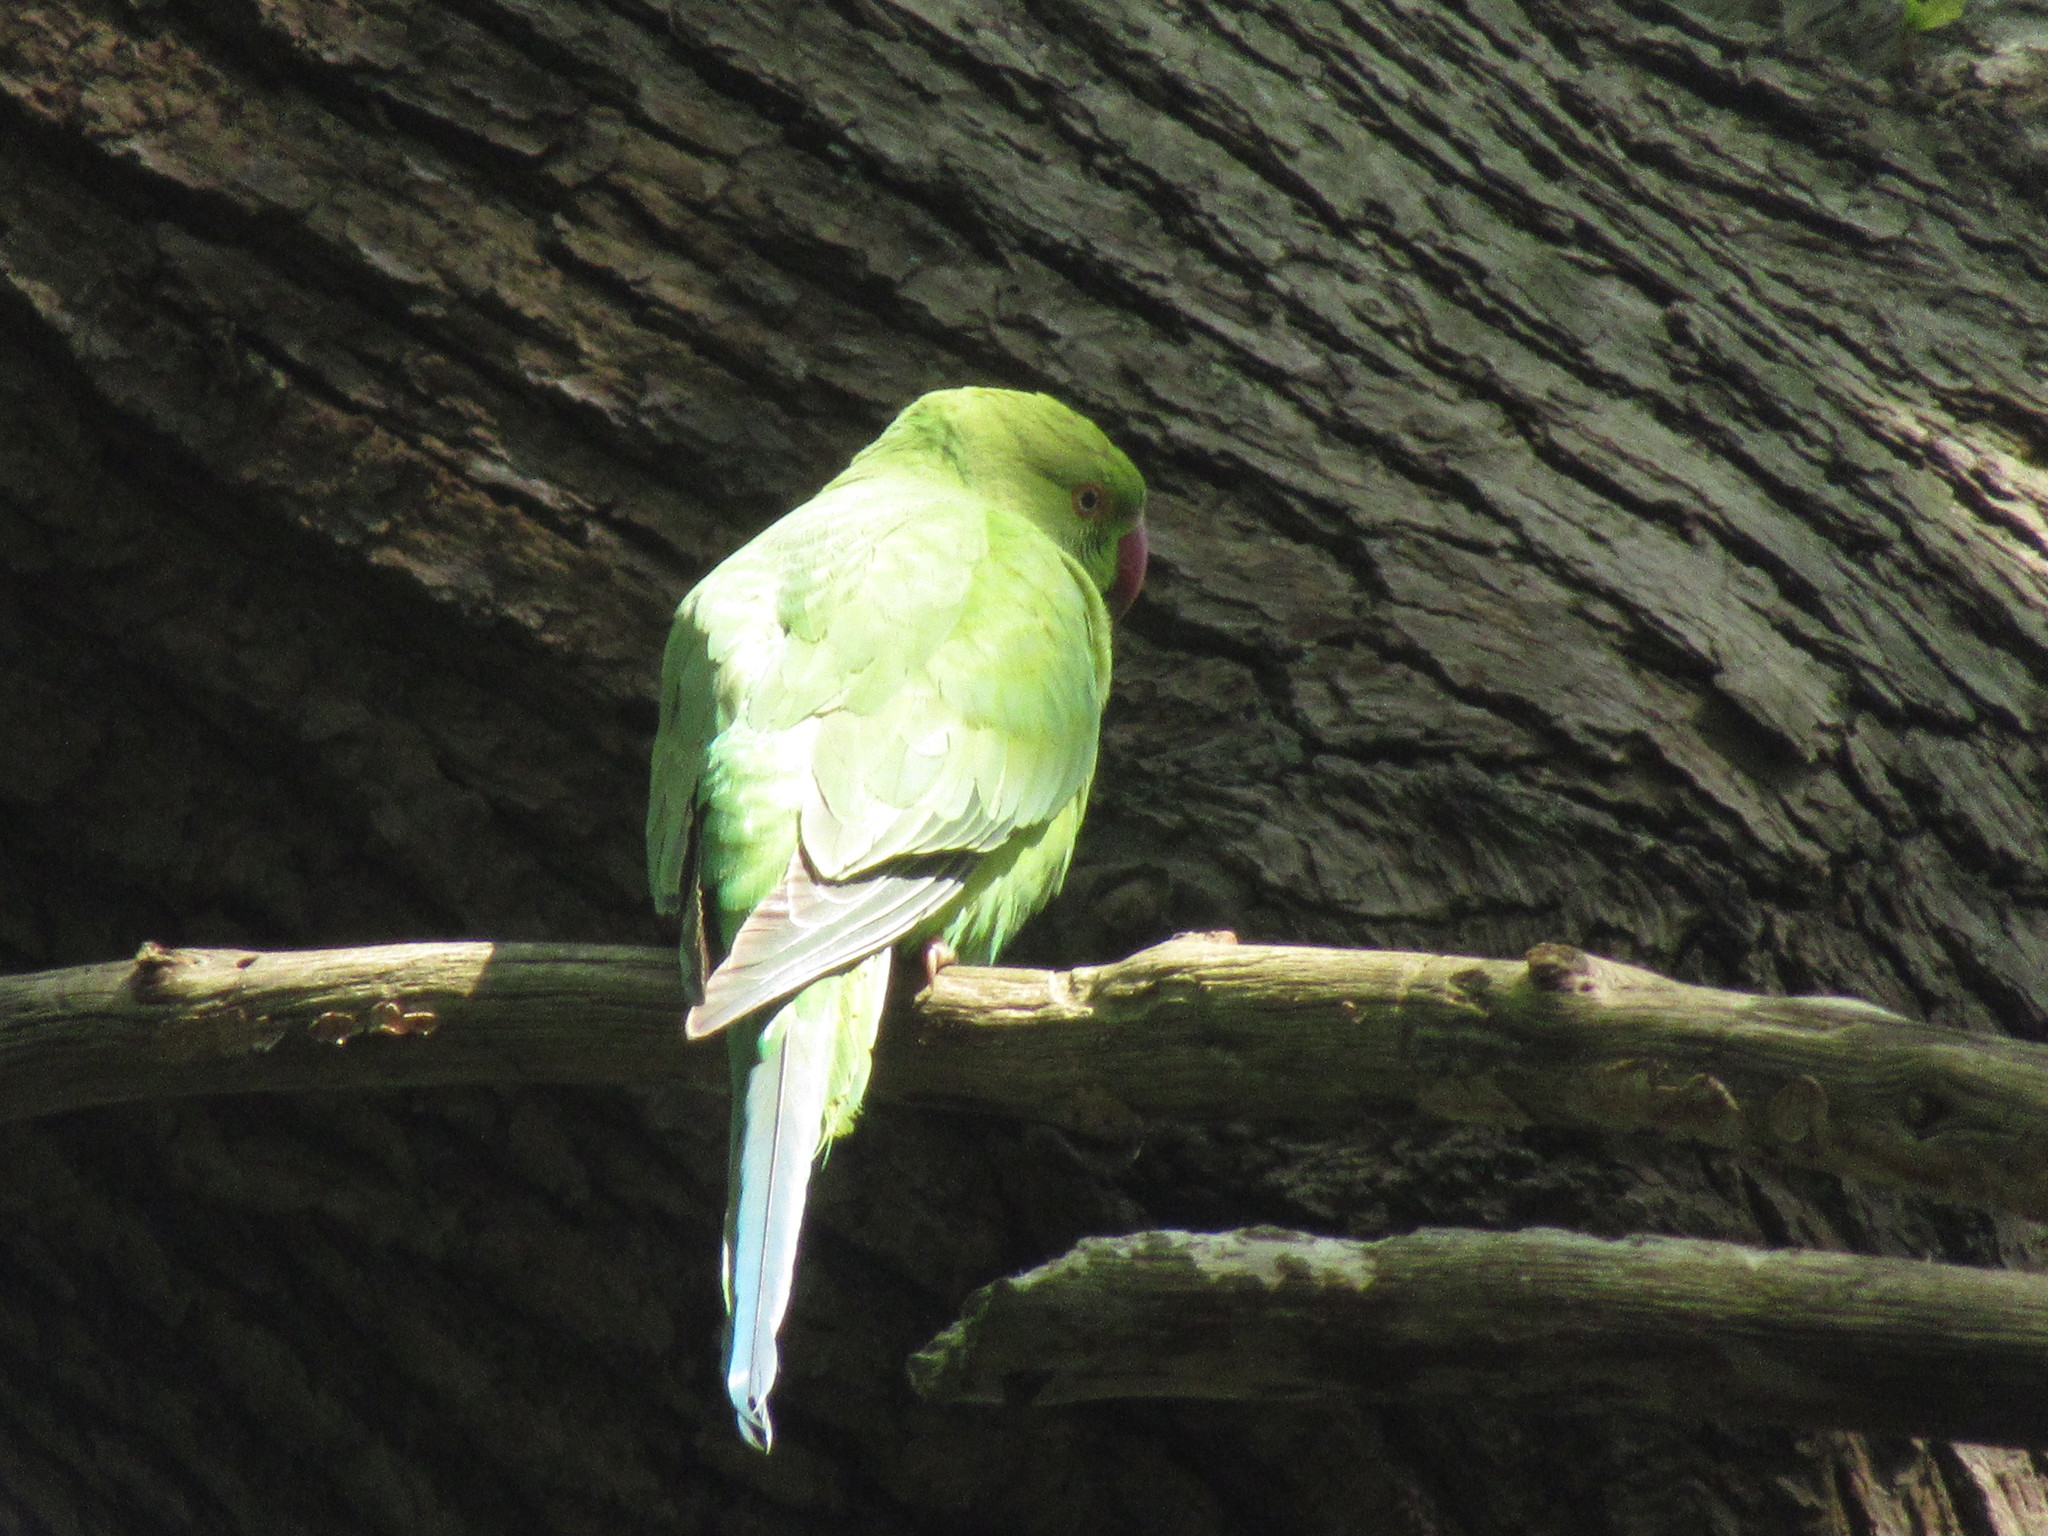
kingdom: Animalia
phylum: Chordata
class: Aves
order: Psittaciformes
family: Psittacidae
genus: Psittacula
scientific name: Psittacula krameri
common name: Rose-ringed parakeet
